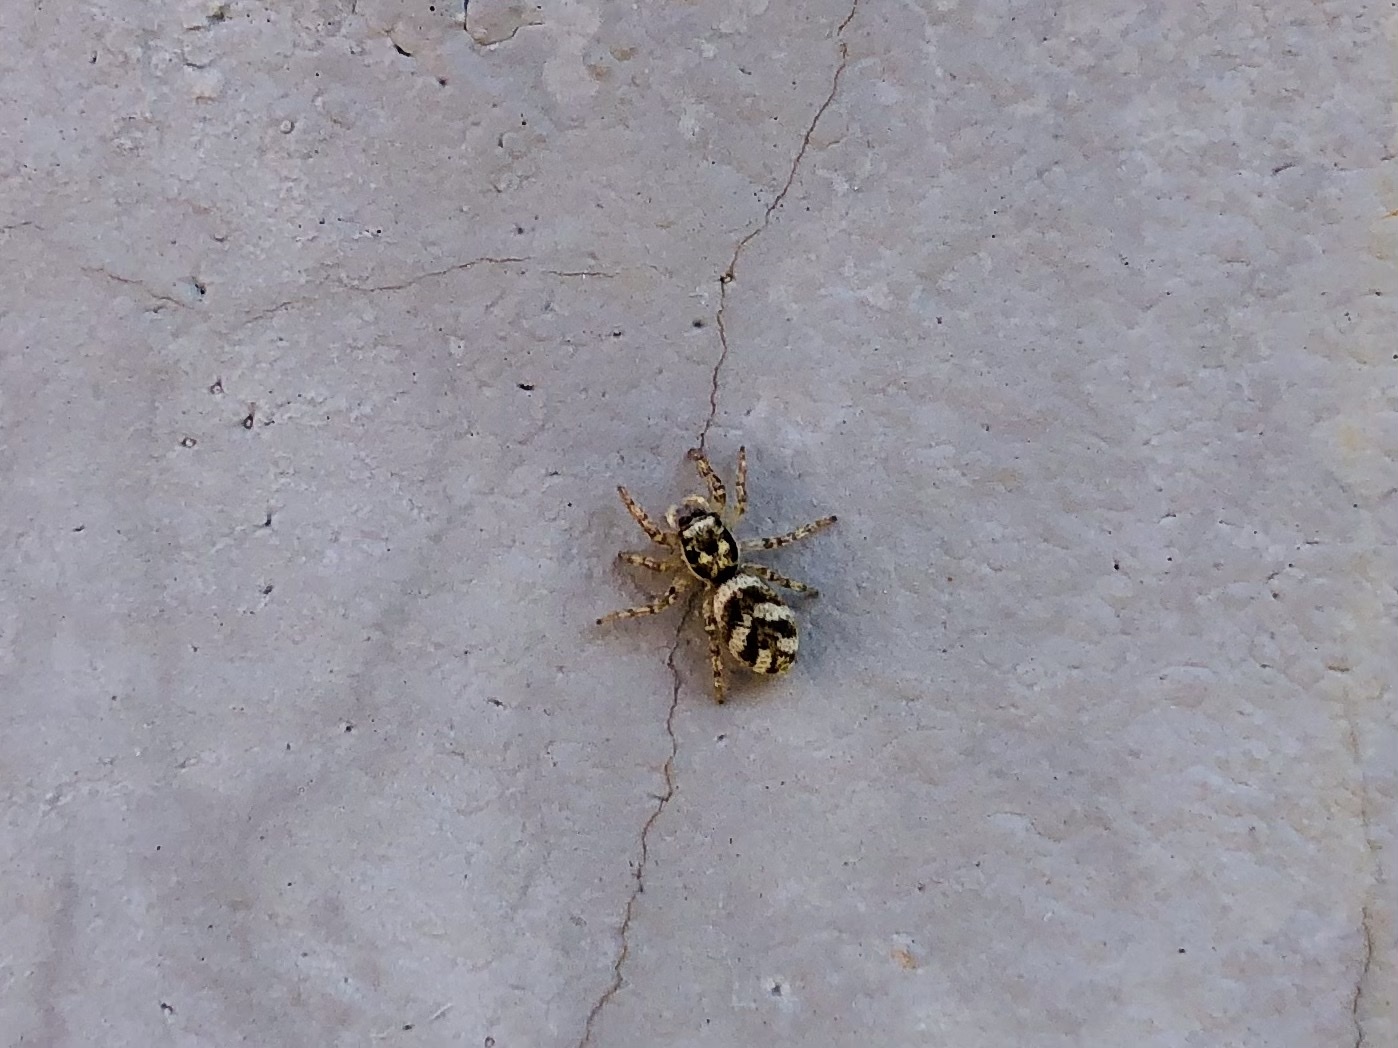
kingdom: Animalia
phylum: Arthropoda
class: Arachnida
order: Araneae
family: Salticidae
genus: Salticus
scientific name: Salticus scenicus
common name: Zebra jumper
